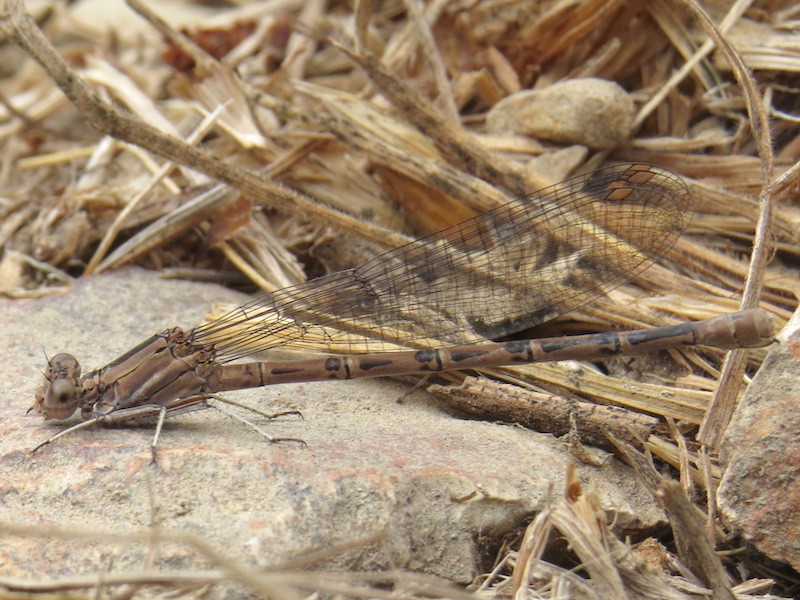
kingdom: Animalia
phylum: Arthropoda
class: Insecta
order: Odonata
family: Coenagrionidae
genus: Argia
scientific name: Argia vivida
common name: Vivid dancer
